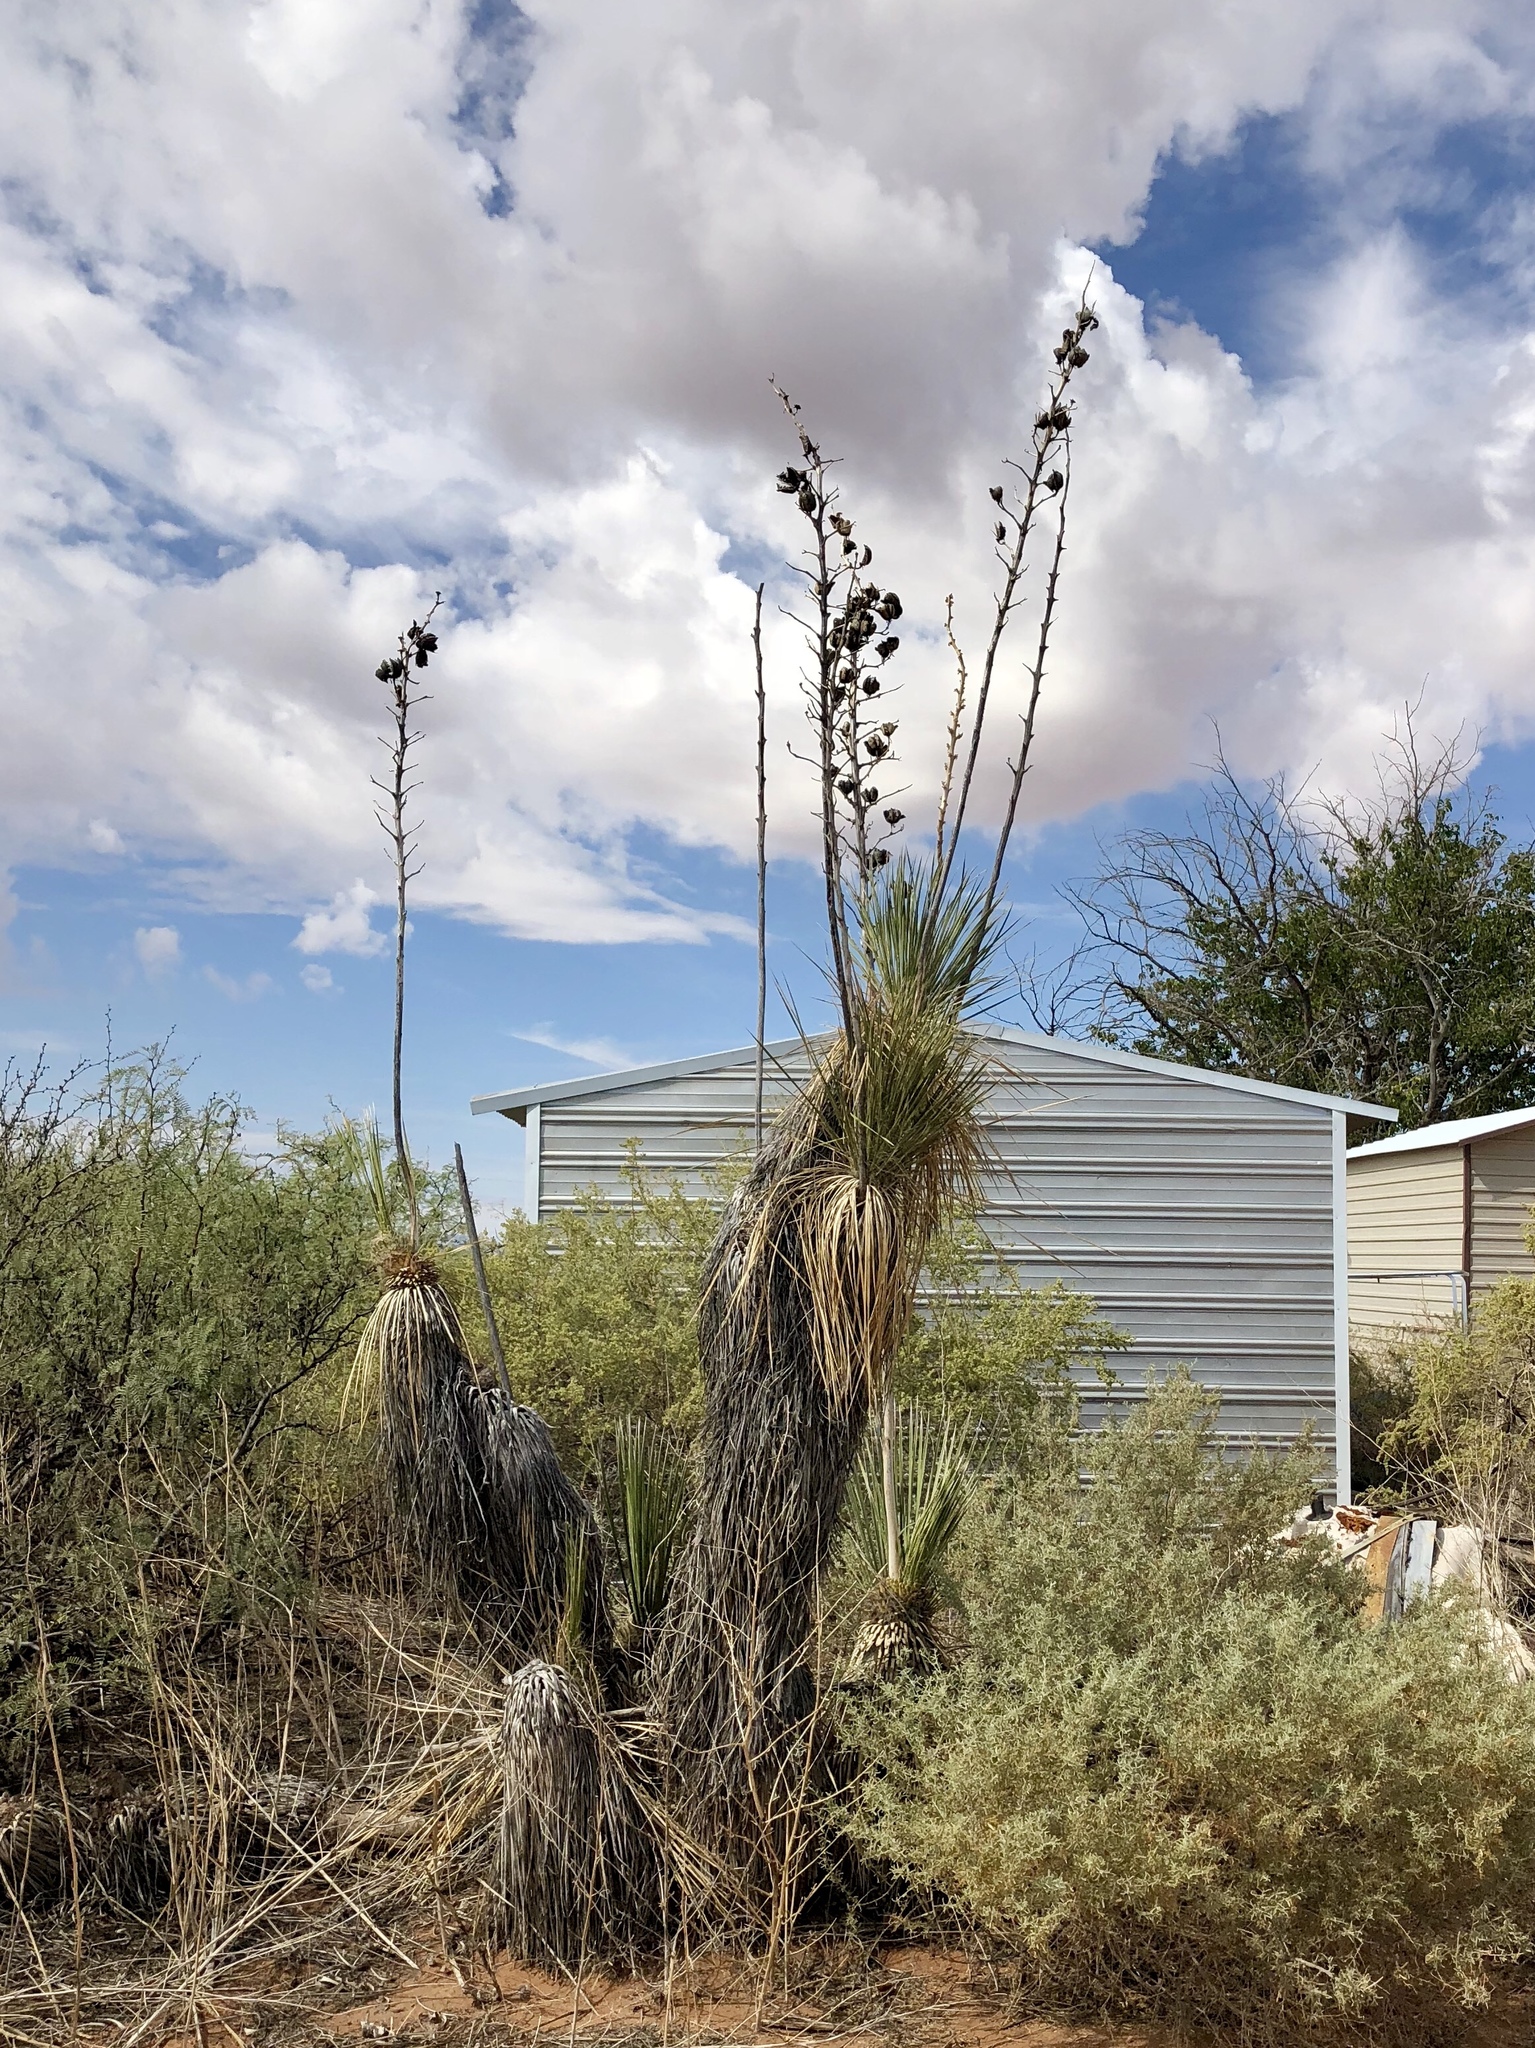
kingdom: Plantae
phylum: Tracheophyta
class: Liliopsida
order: Asparagales
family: Asparagaceae
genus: Yucca
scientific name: Yucca elata
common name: Palmella
